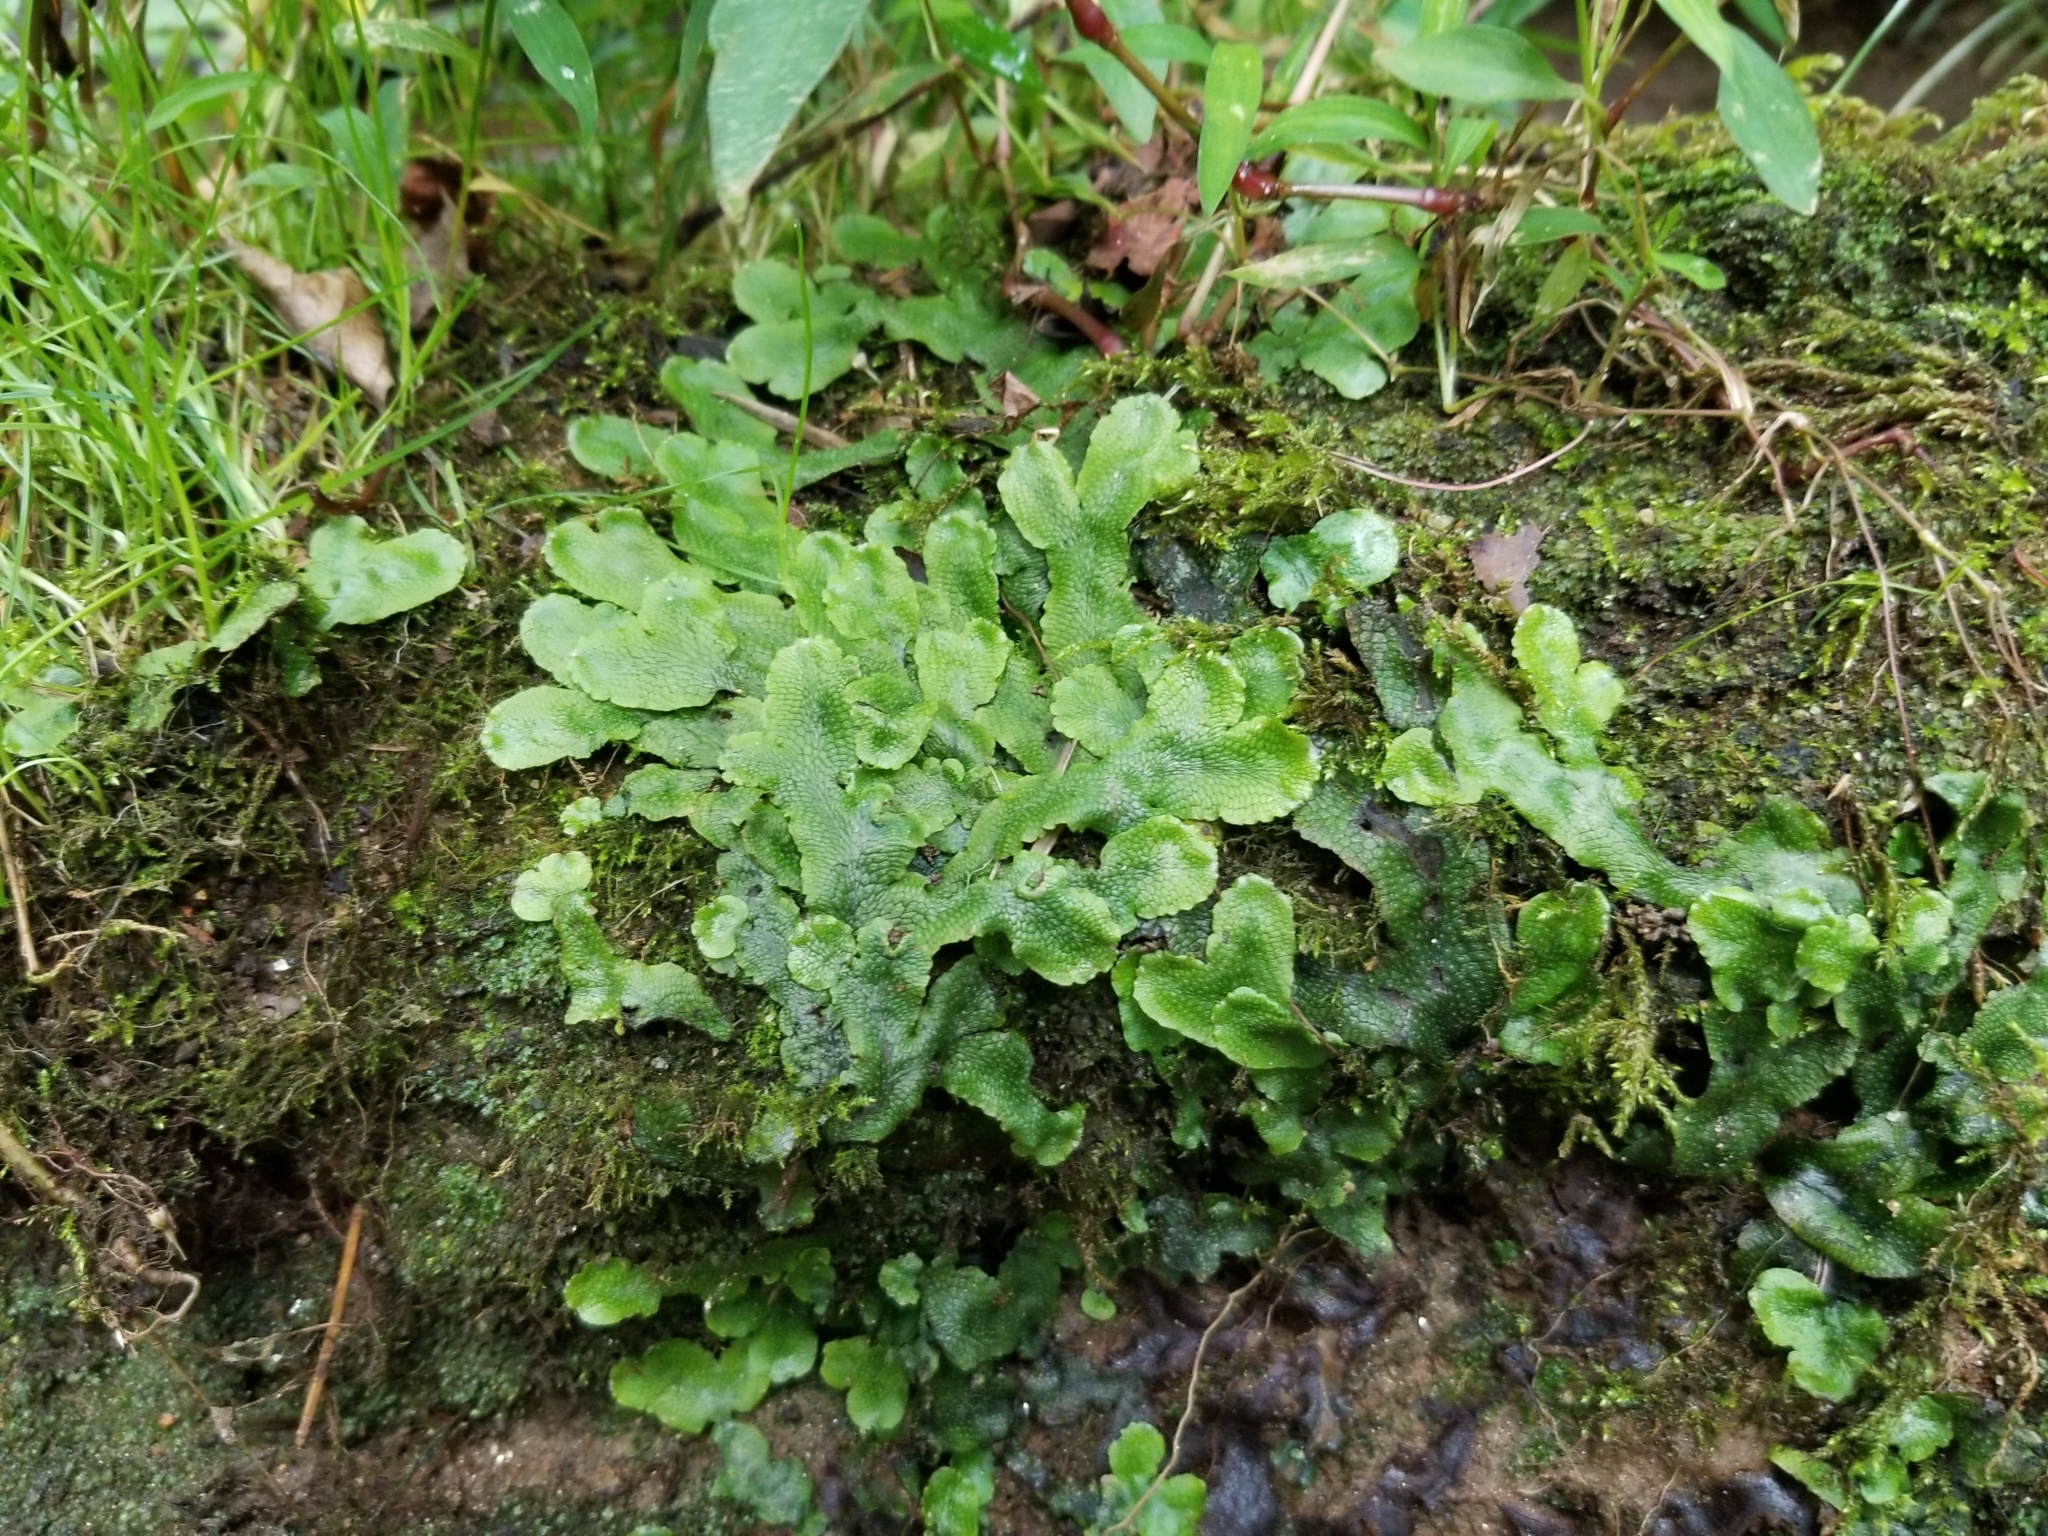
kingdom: Plantae
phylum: Marchantiophyta
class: Marchantiopsida
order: Marchantiales
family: Conocephalaceae
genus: Conocephalum
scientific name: Conocephalum salebrosum
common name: Cat-tongue liverwort
